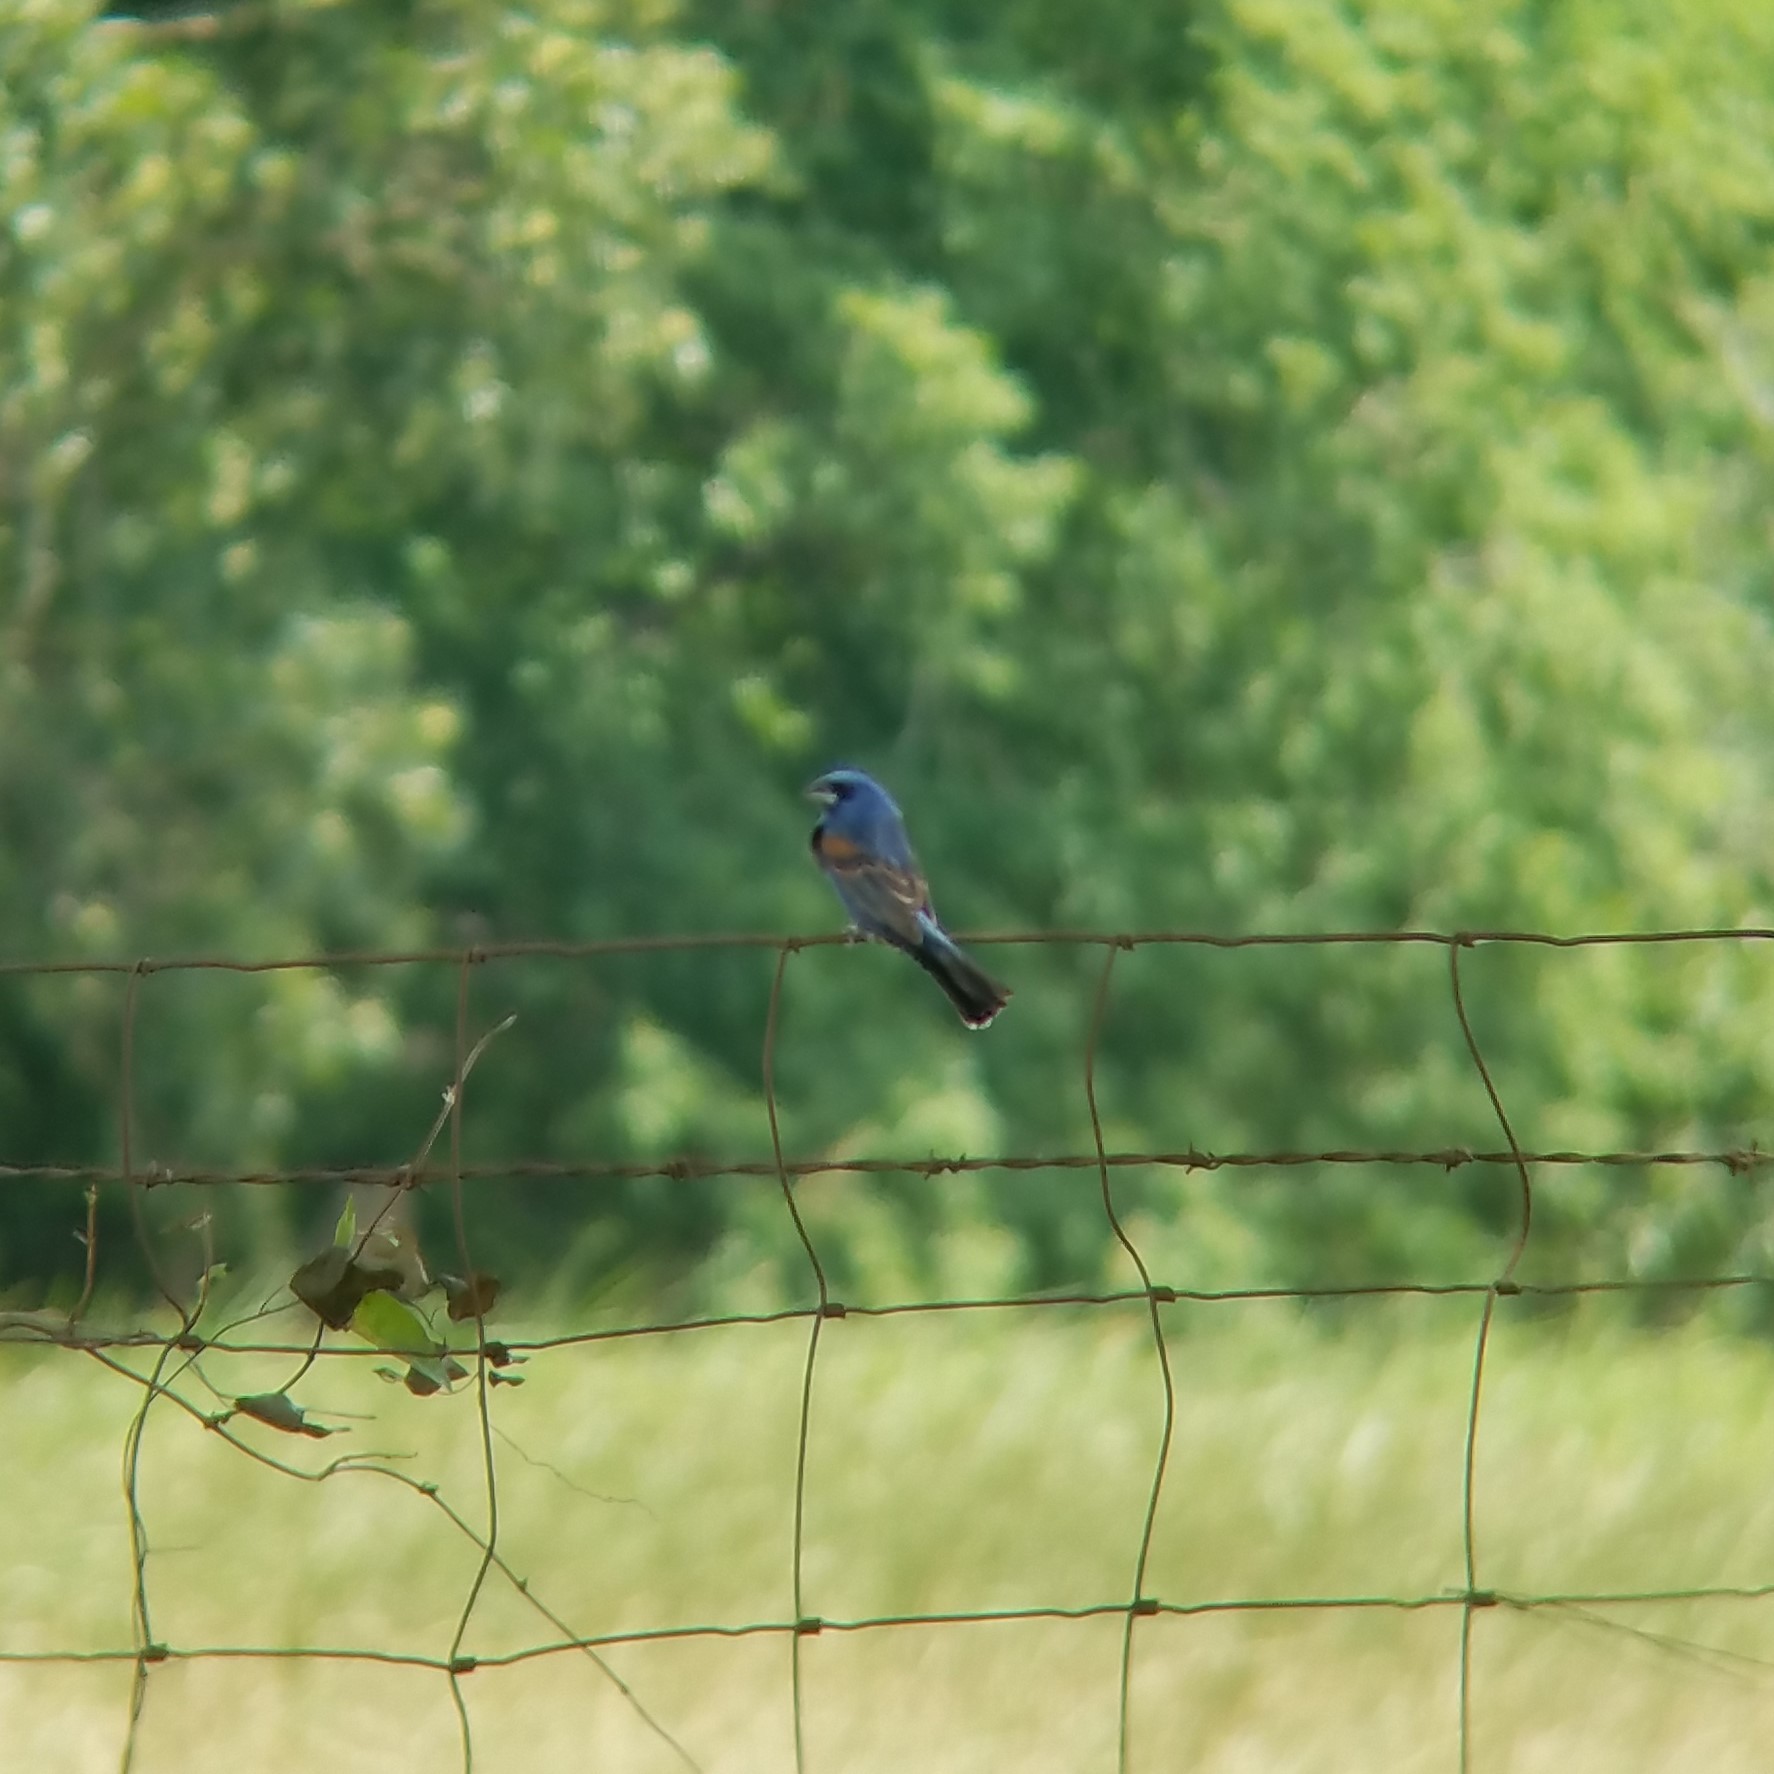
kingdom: Animalia
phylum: Chordata
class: Aves
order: Passeriformes
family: Cardinalidae
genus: Passerina
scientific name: Passerina caerulea
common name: Blue grosbeak
